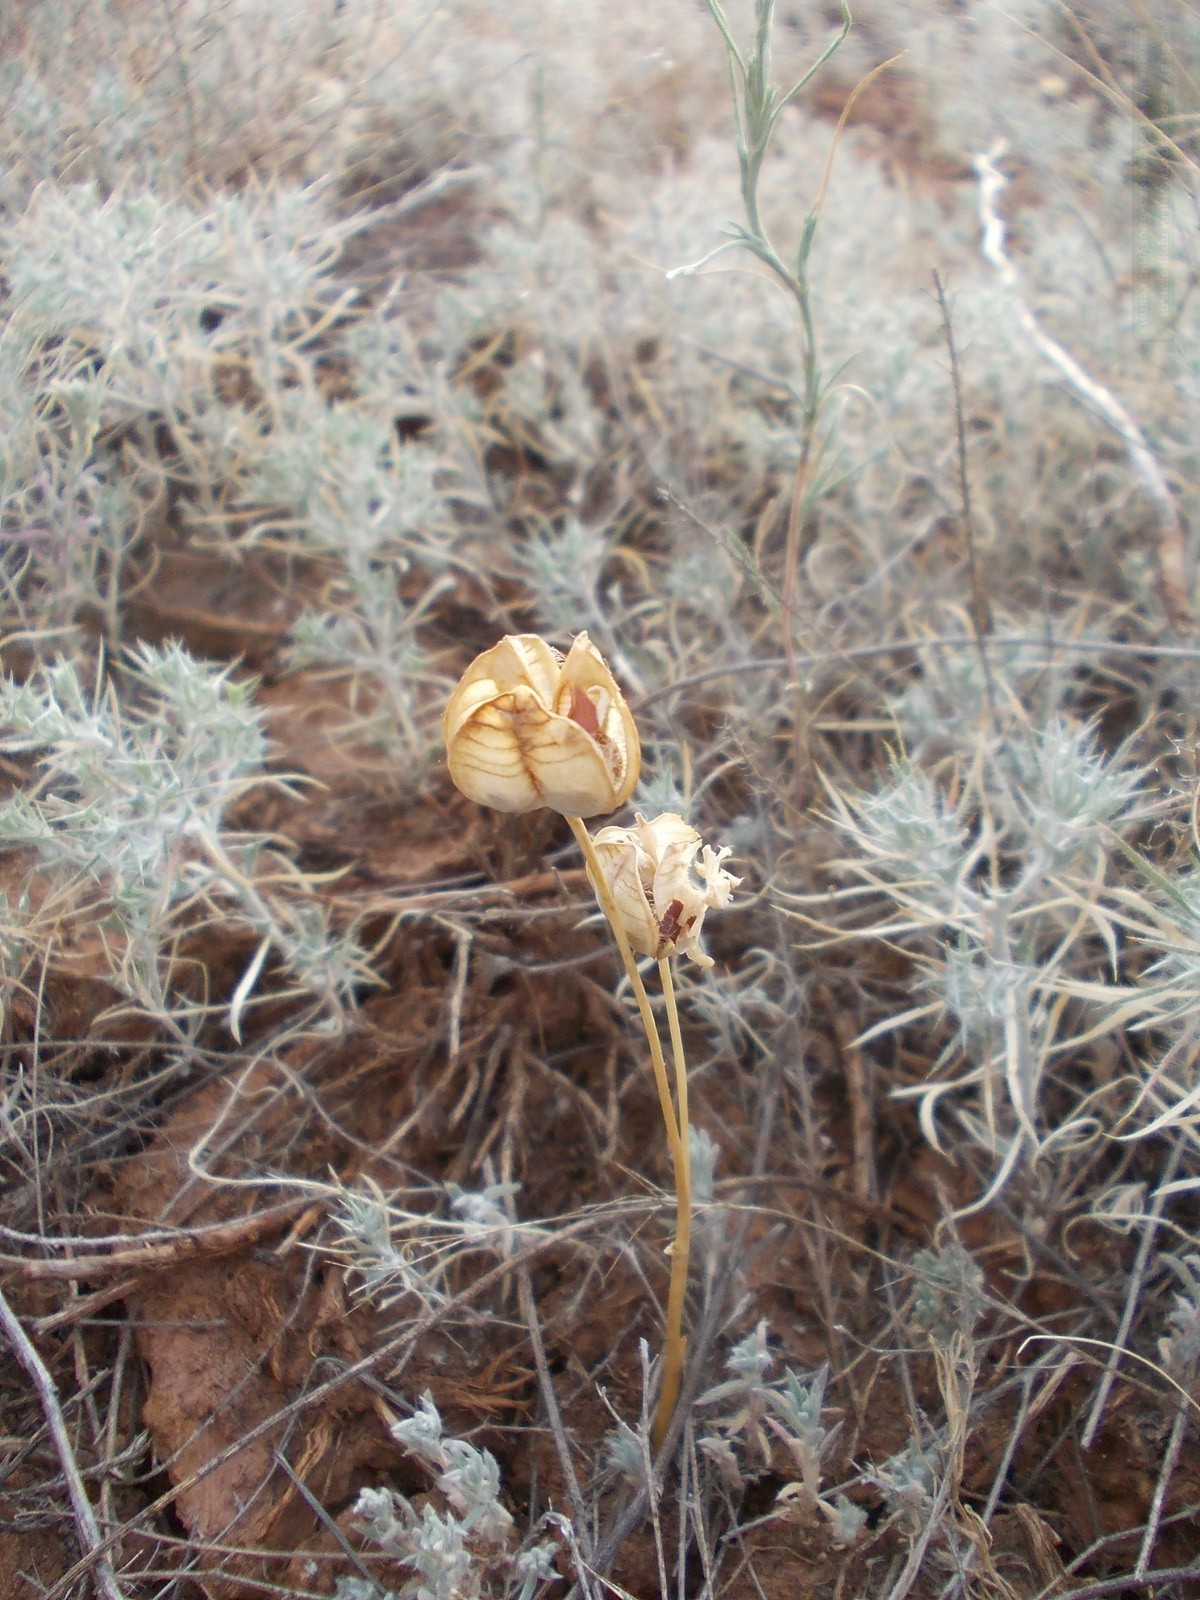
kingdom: Plantae
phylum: Tracheophyta
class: Liliopsida
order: Liliales
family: Liliaceae
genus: Tulipa
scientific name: Tulipa biflora
